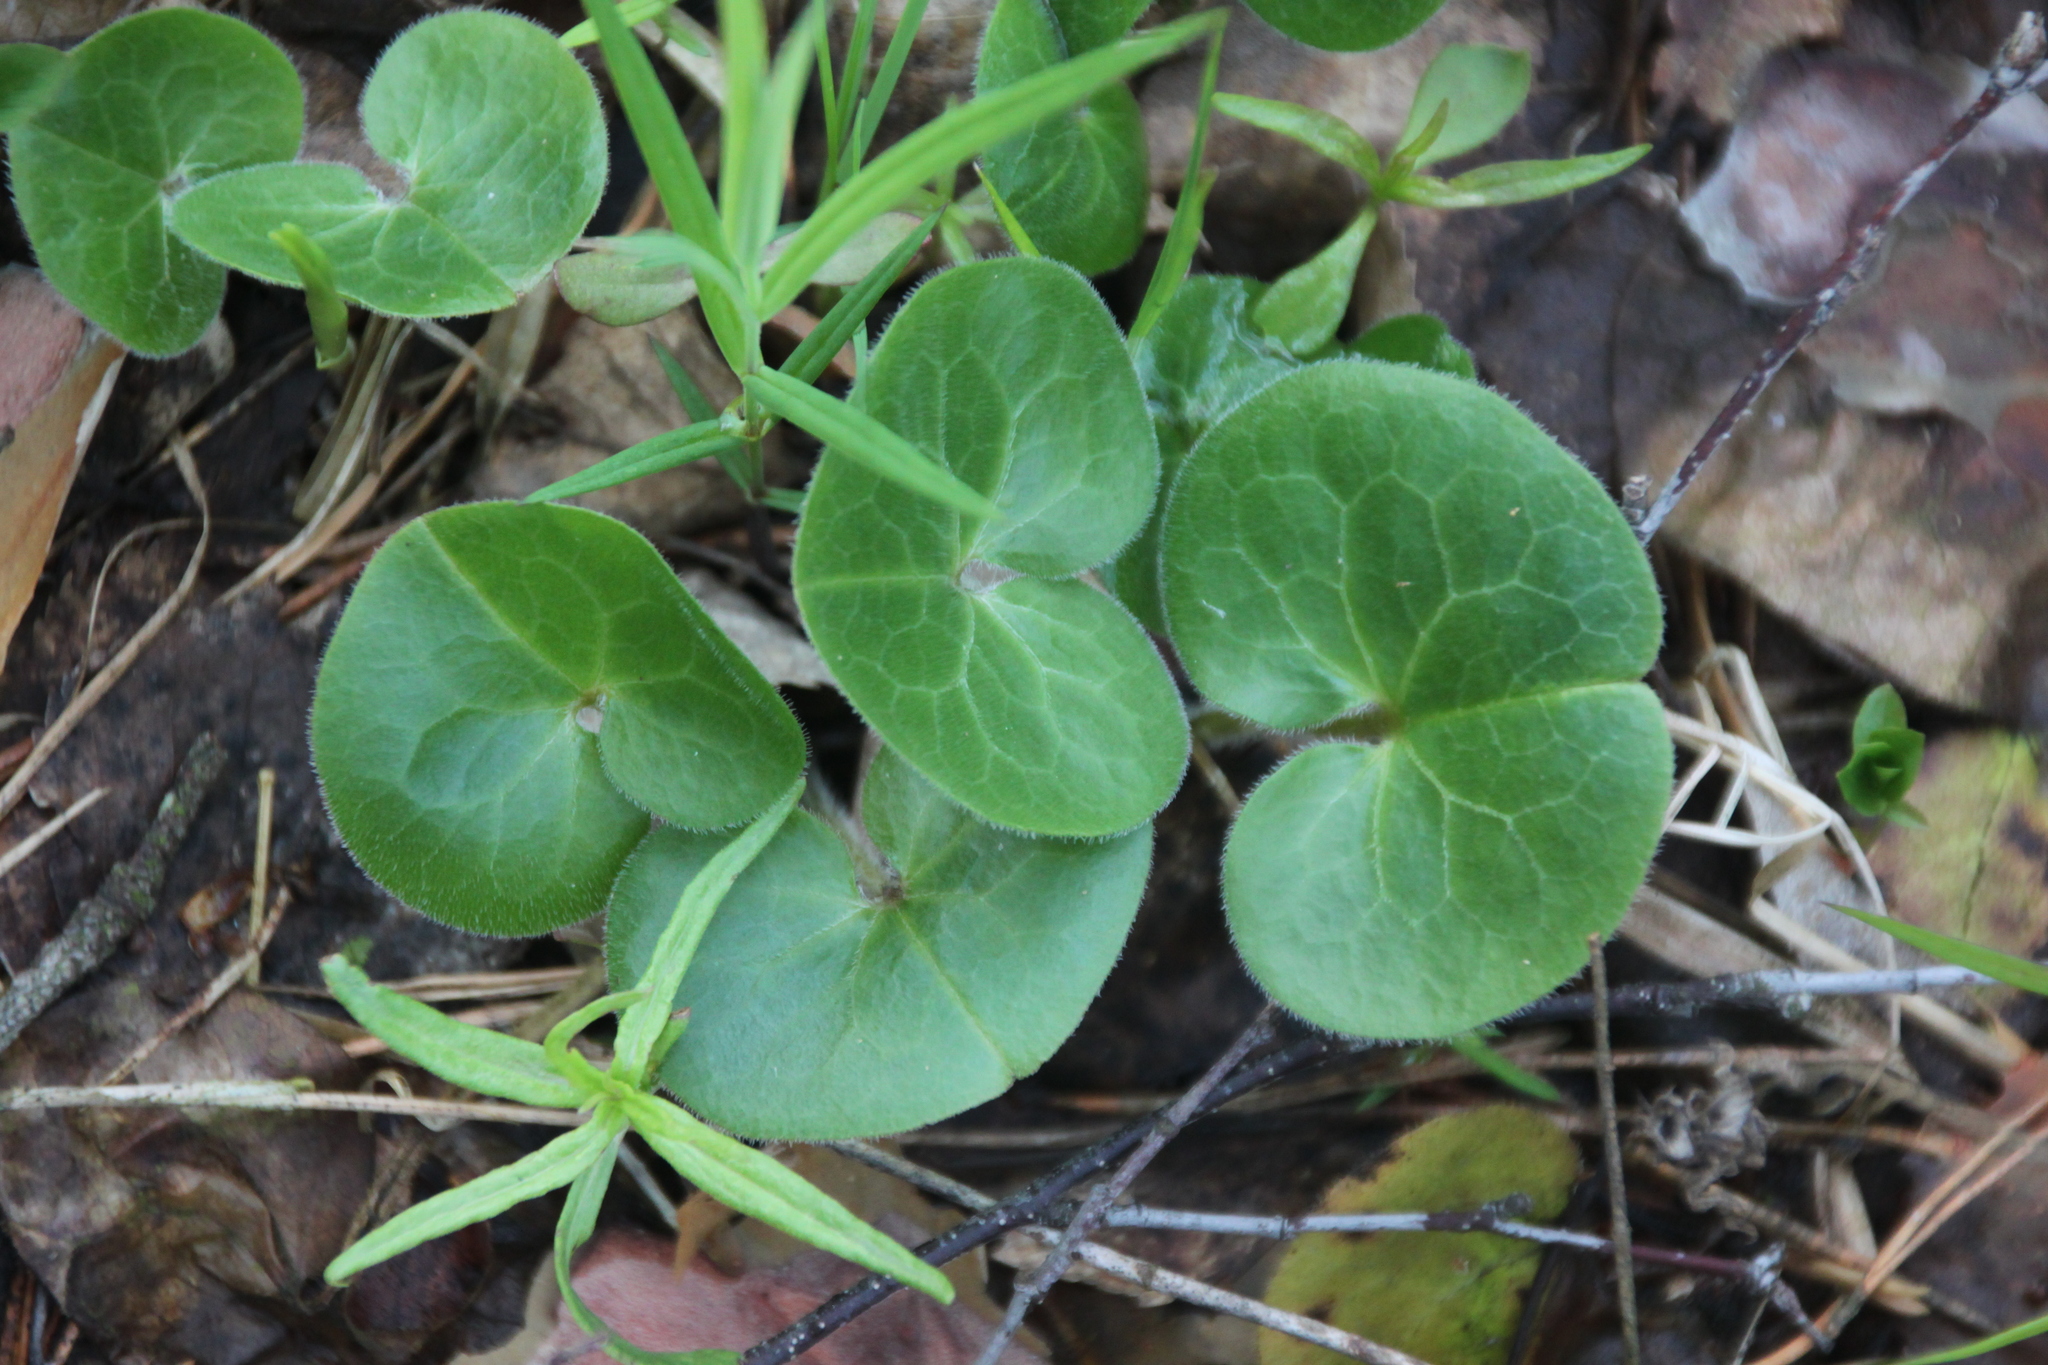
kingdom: Plantae
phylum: Tracheophyta
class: Magnoliopsida
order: Piperales
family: Aristolochiaceae
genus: Asarum
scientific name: Asarum europaeum
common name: Asarabacca
